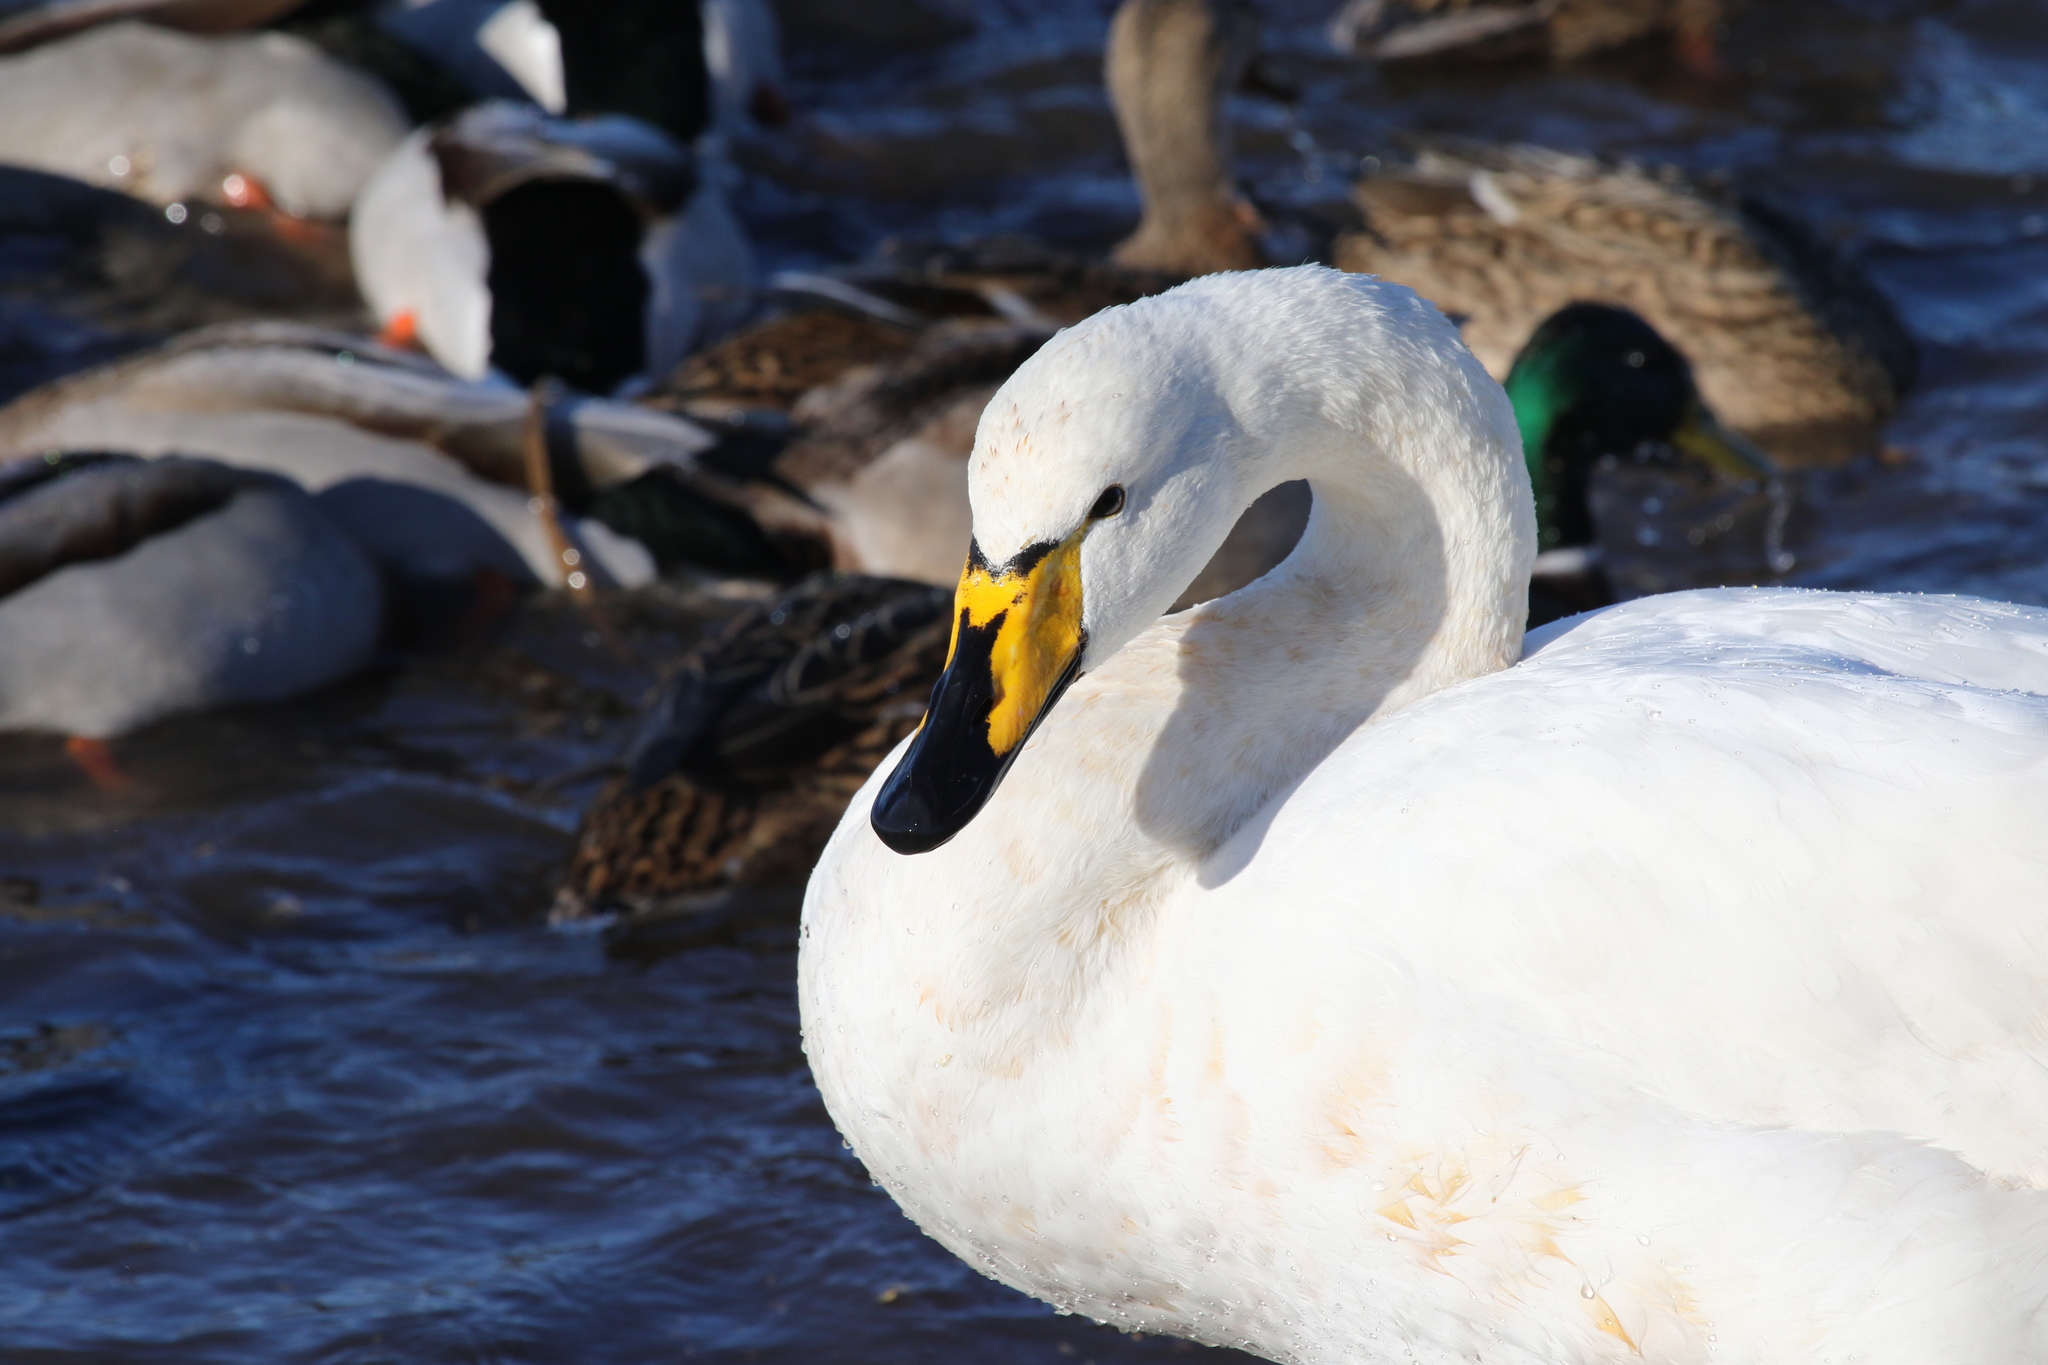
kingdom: Animalia
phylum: Chordata
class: Aves
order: Anseriformes
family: Anatidae
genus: Cygnus
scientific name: Cygnus cygnus
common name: Whooper swan
